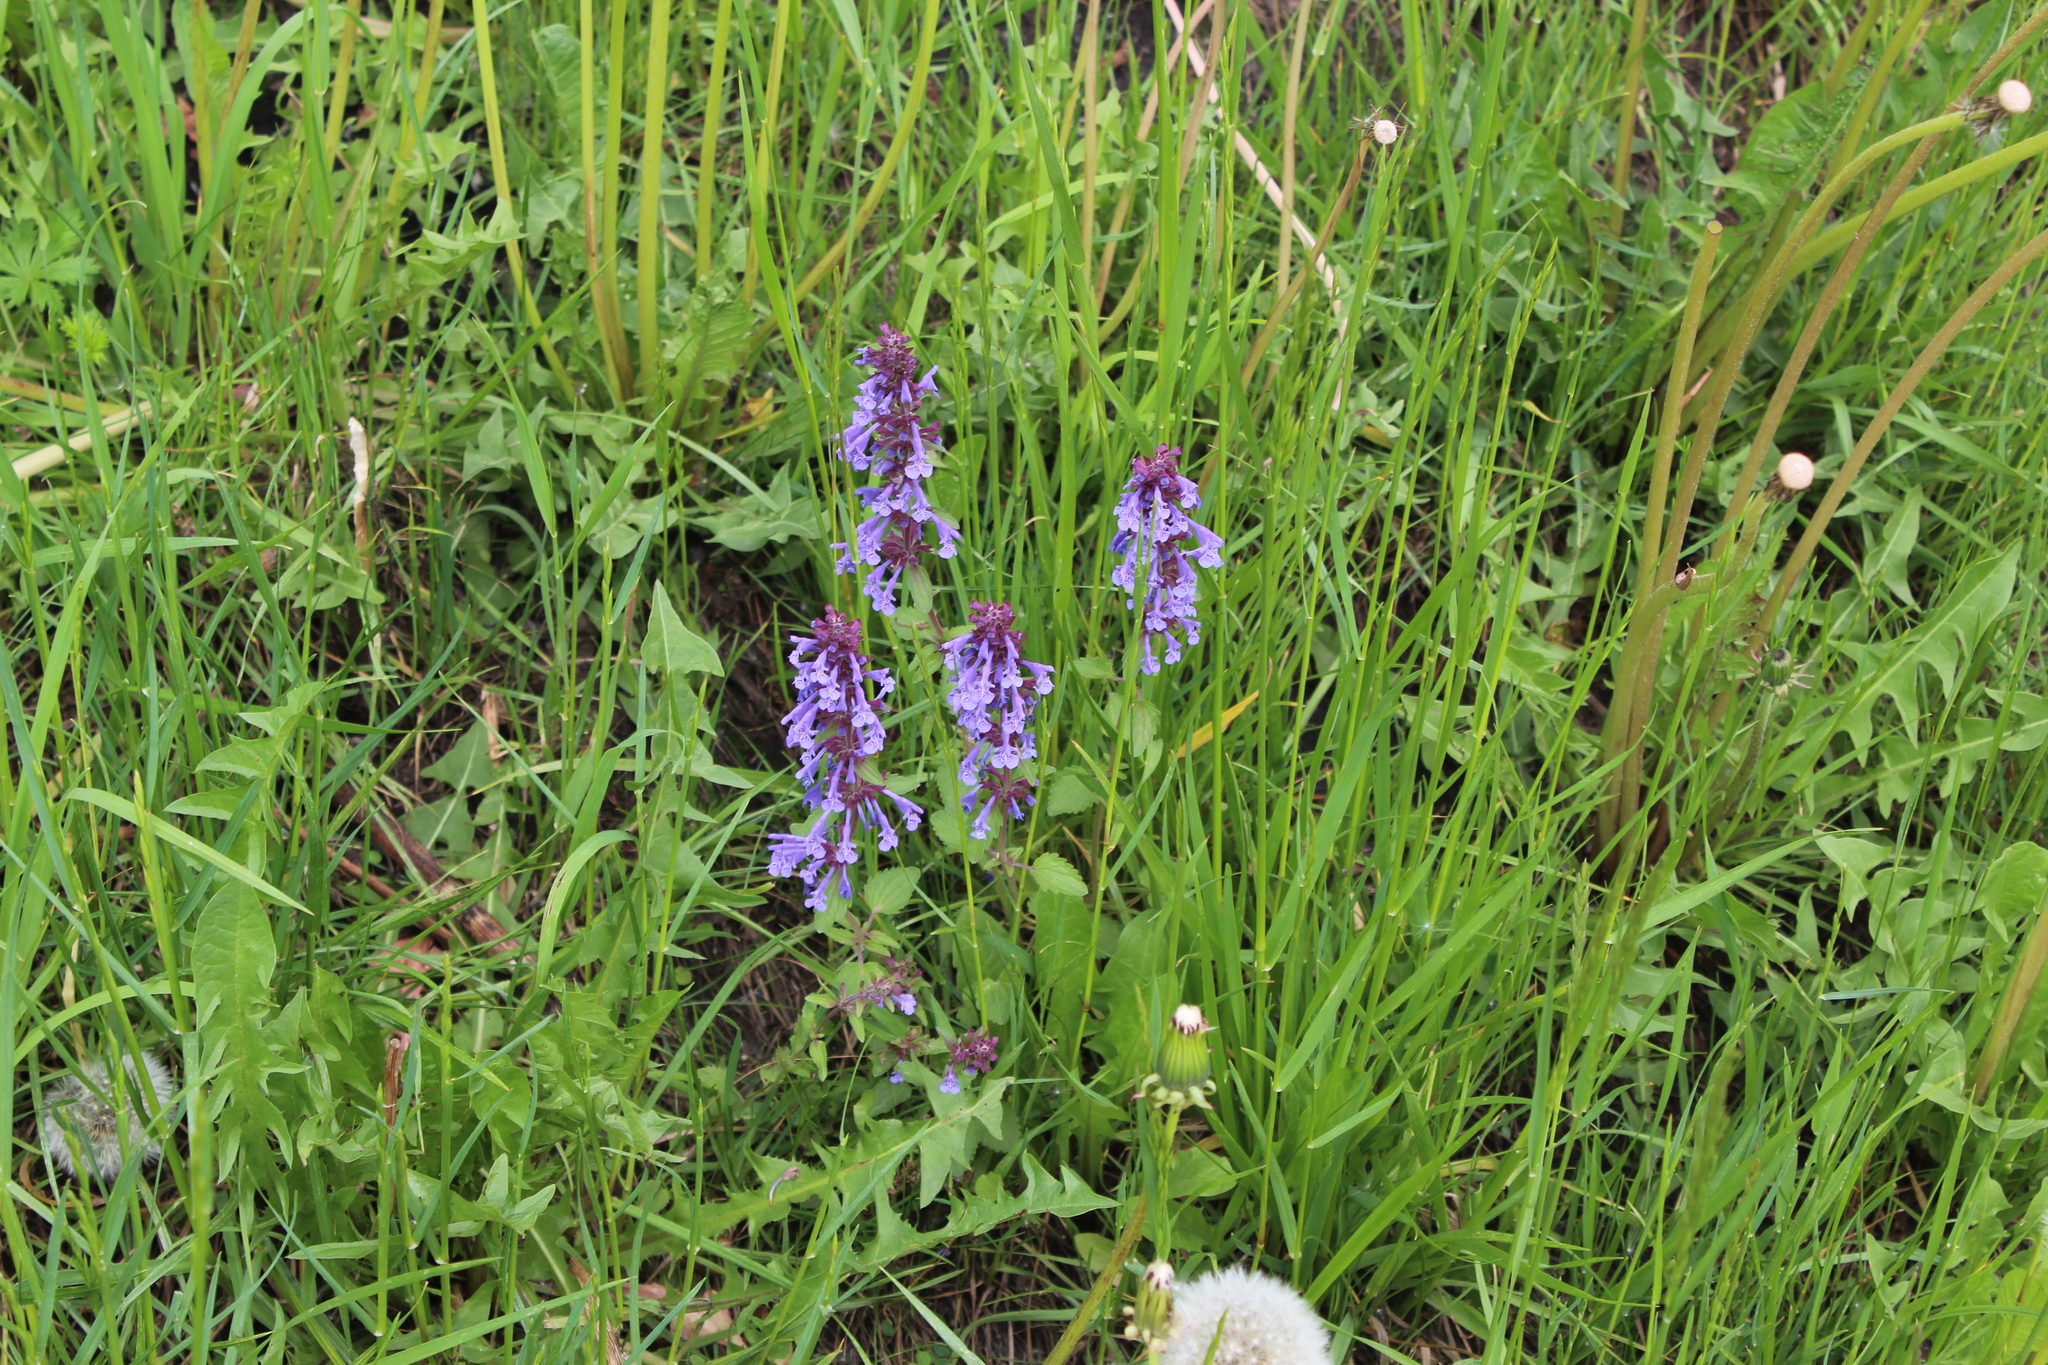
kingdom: Plantae
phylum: Tracheophyta
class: Magnoliopsida
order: Lamiales
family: Lamiaceae
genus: Dracocephalum
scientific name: Dracocephalum nutans
